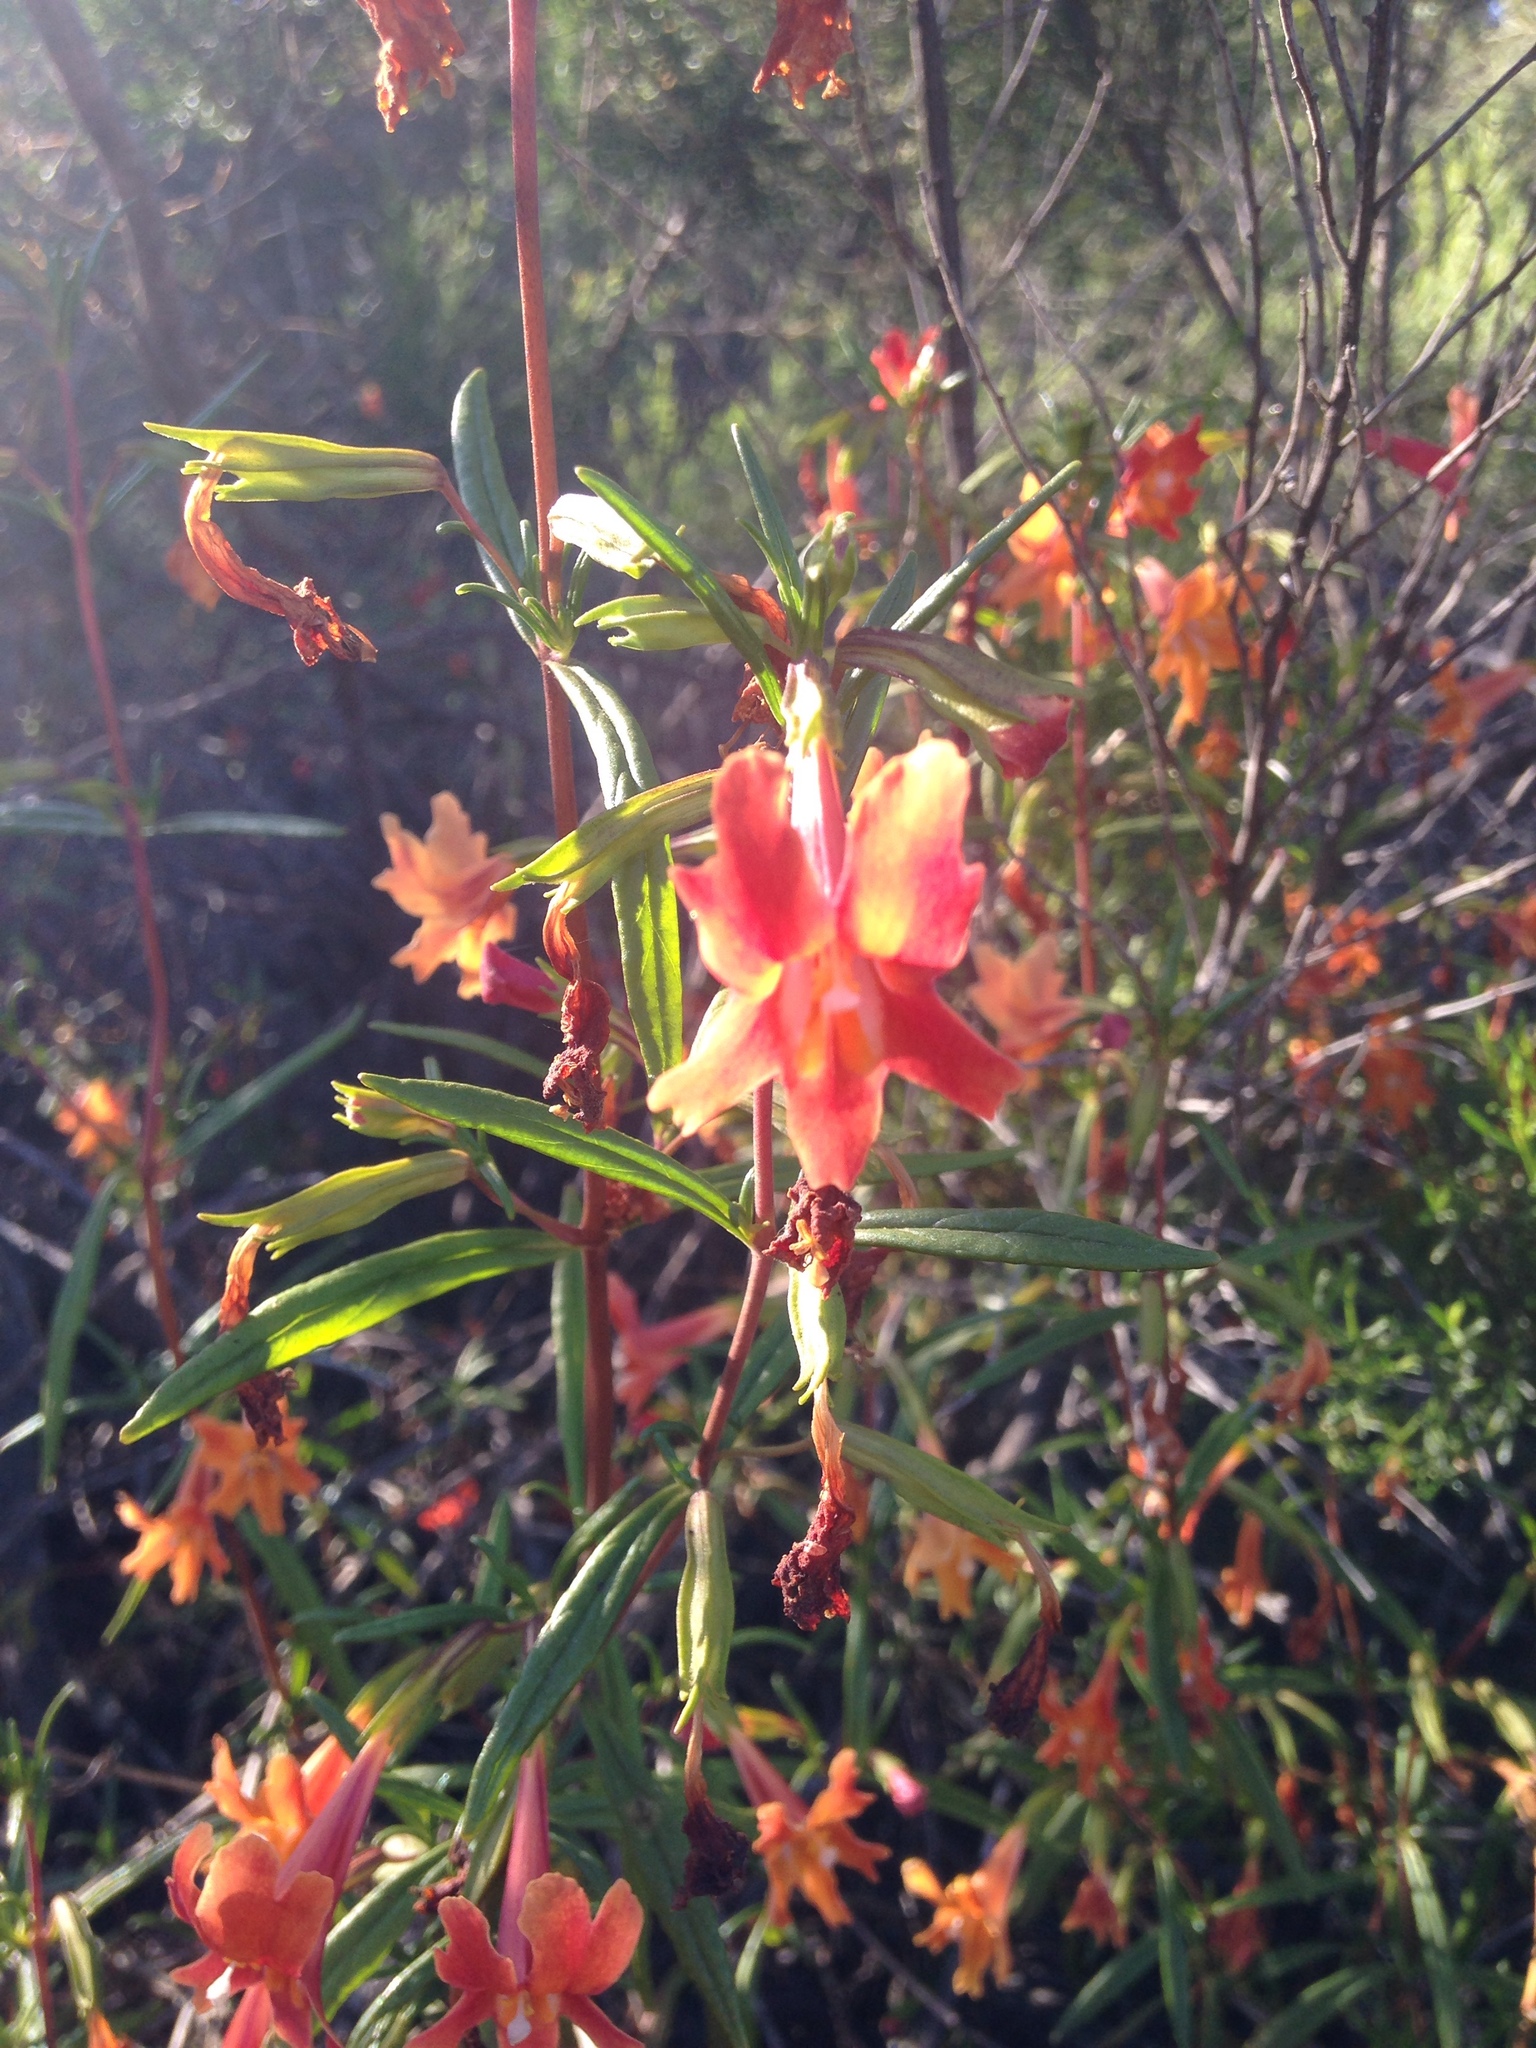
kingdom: Plantae
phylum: Tracheophyta
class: Magnoliopsida
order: Lamiales
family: Phrymaceae
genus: Diplacus
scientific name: Diplacus puniceus
